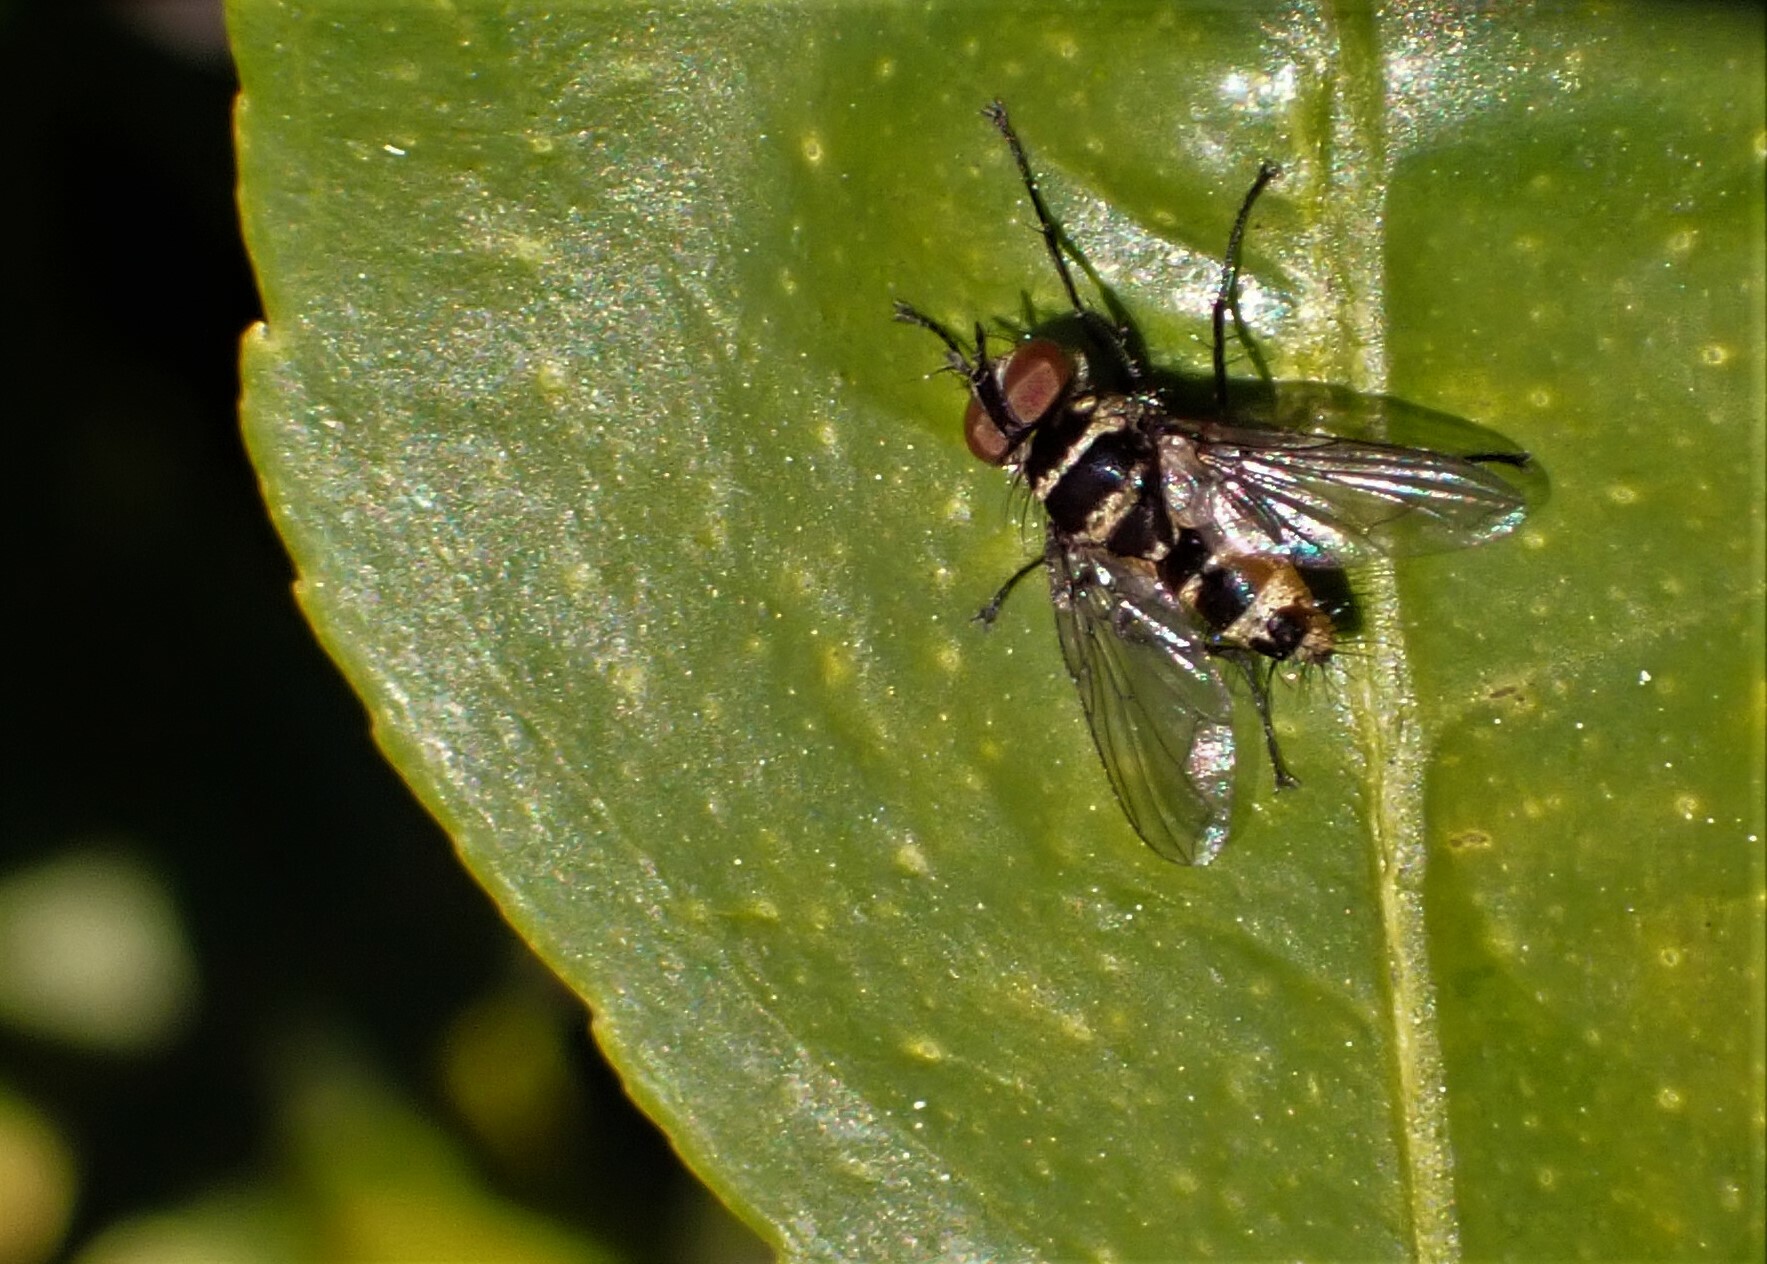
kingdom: Animalia
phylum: Arthropoda
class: Insecta
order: Diptera
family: Tachinidae
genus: Trigonospila
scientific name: Trigonospila brevifacies
